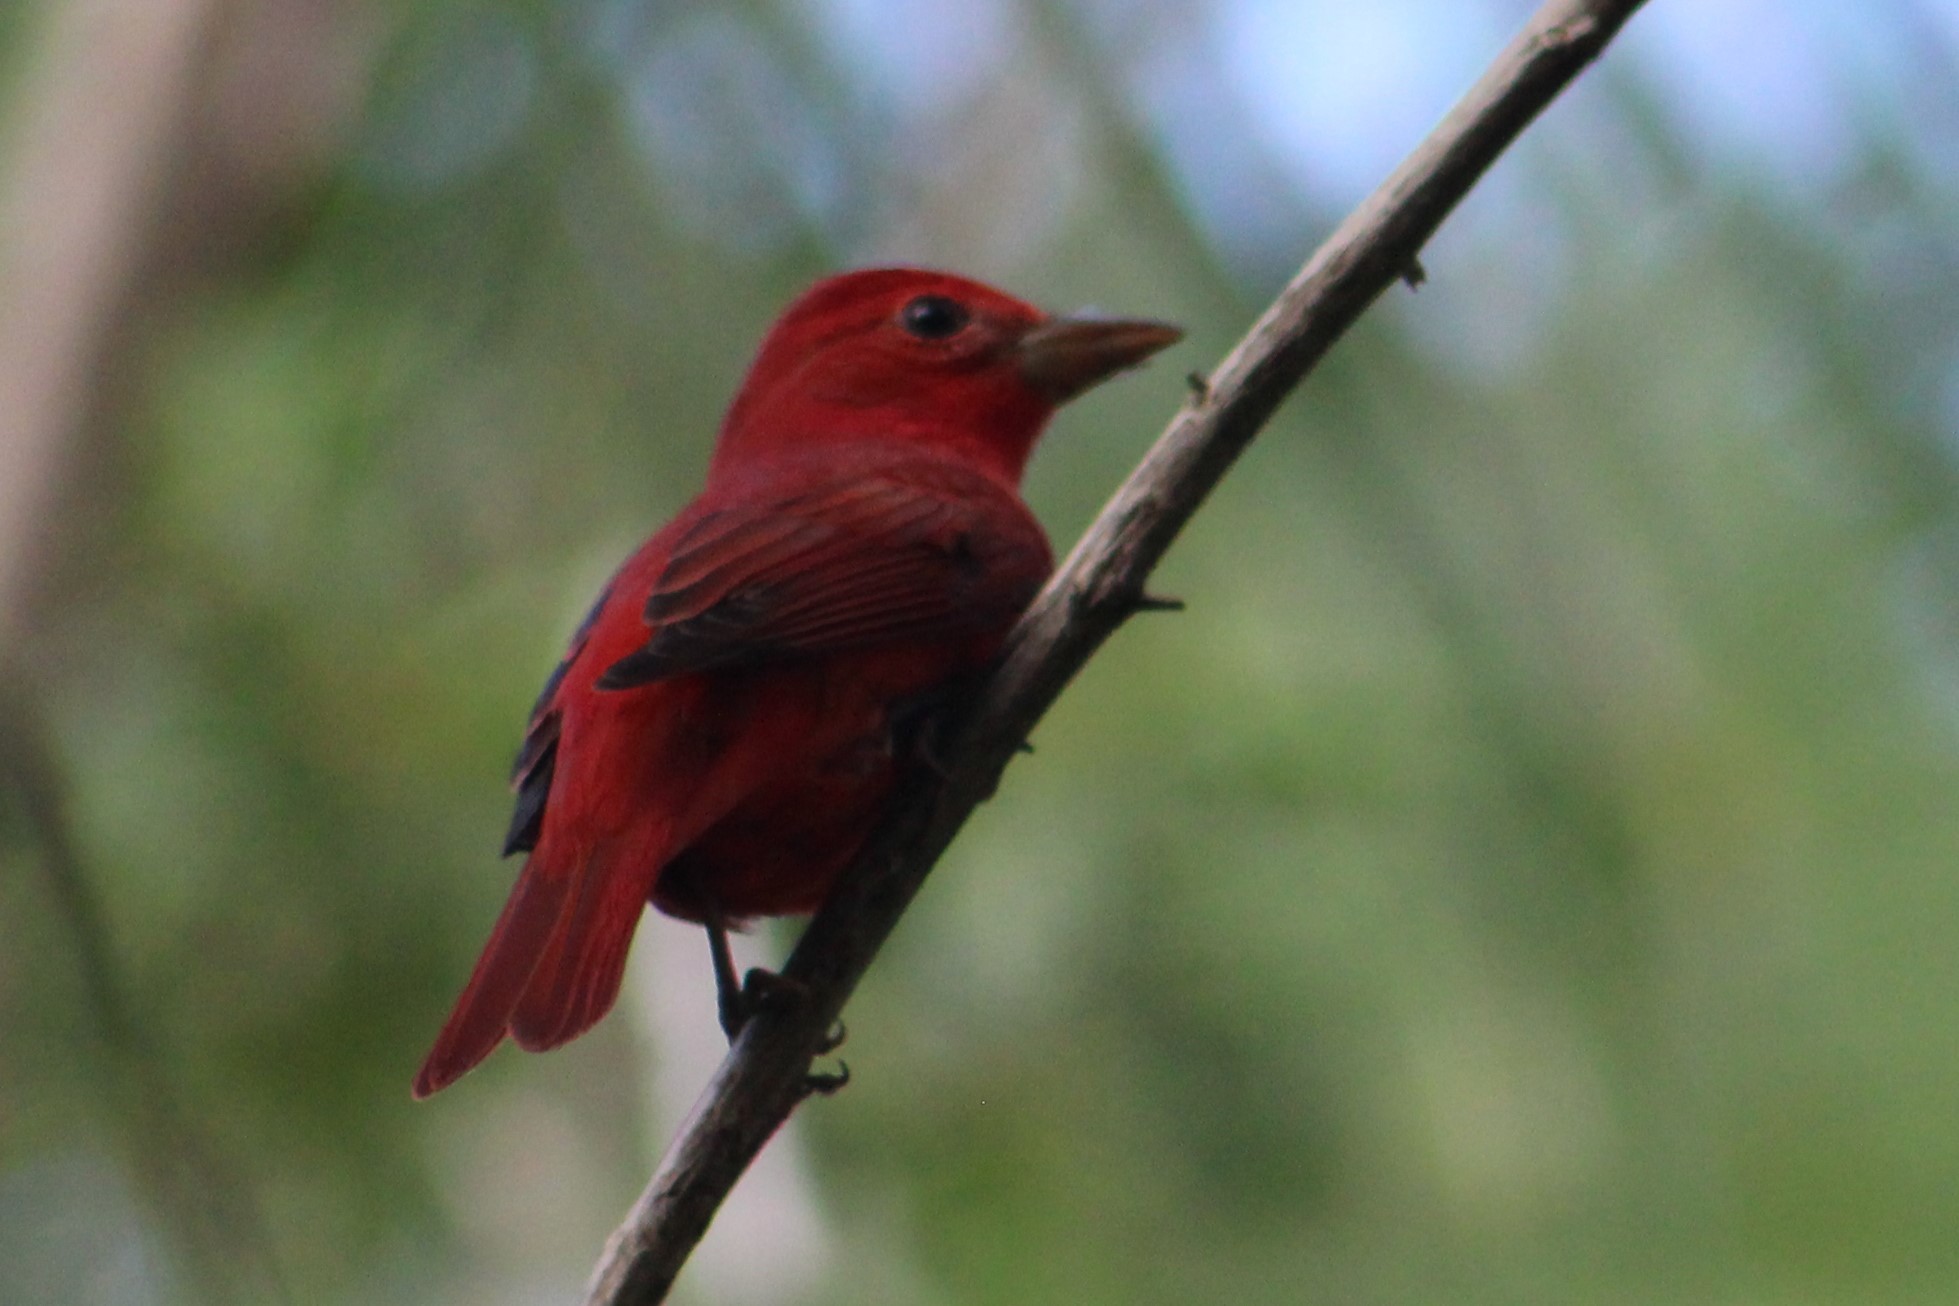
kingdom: Animalia
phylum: Chordata
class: Aves
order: Passeriformes
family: Cardinalidae
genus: Piranga
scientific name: Piranga rubra
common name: Summer tanager
